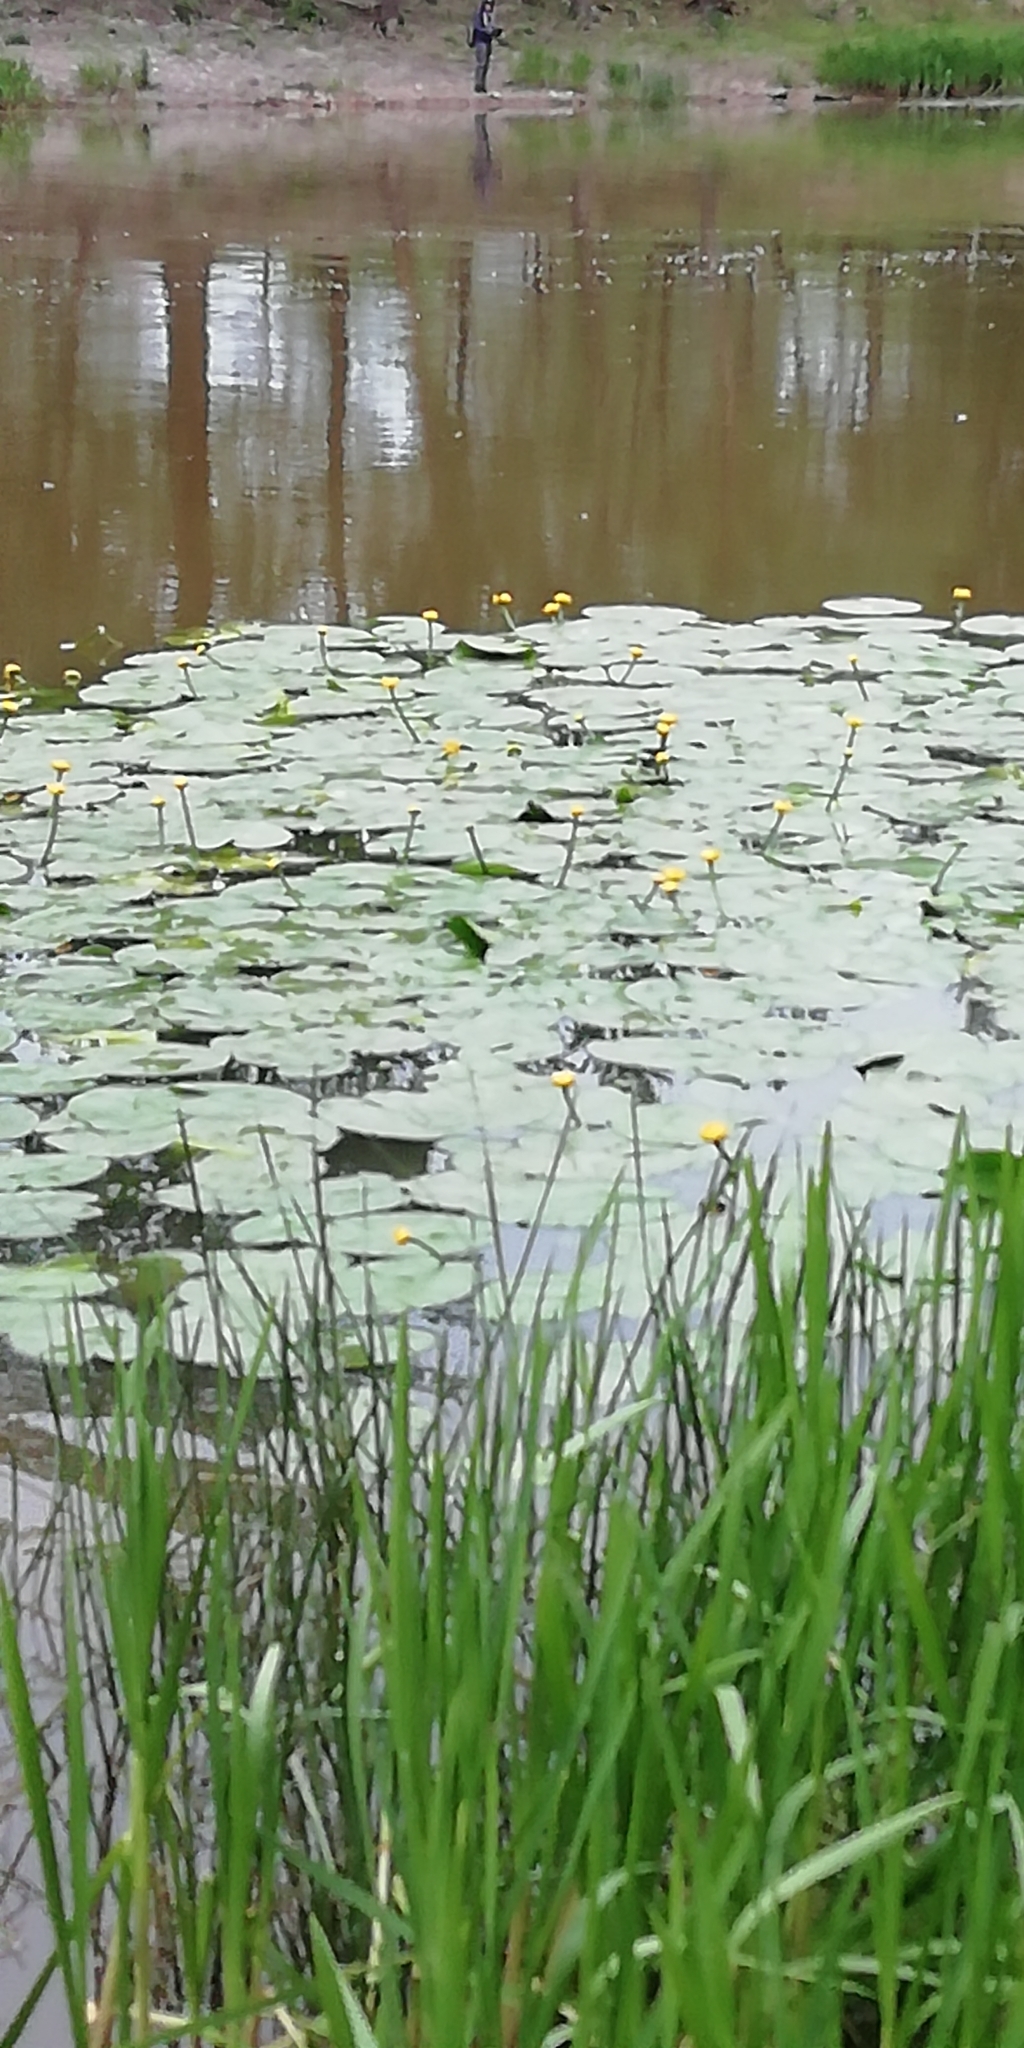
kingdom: Plantae
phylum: Tracheophyta
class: Magnoliopsida
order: Nymphaeales
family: Nymphaeaceae
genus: Nuphar
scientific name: Nuphar lutea
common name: Yellow water-lily
